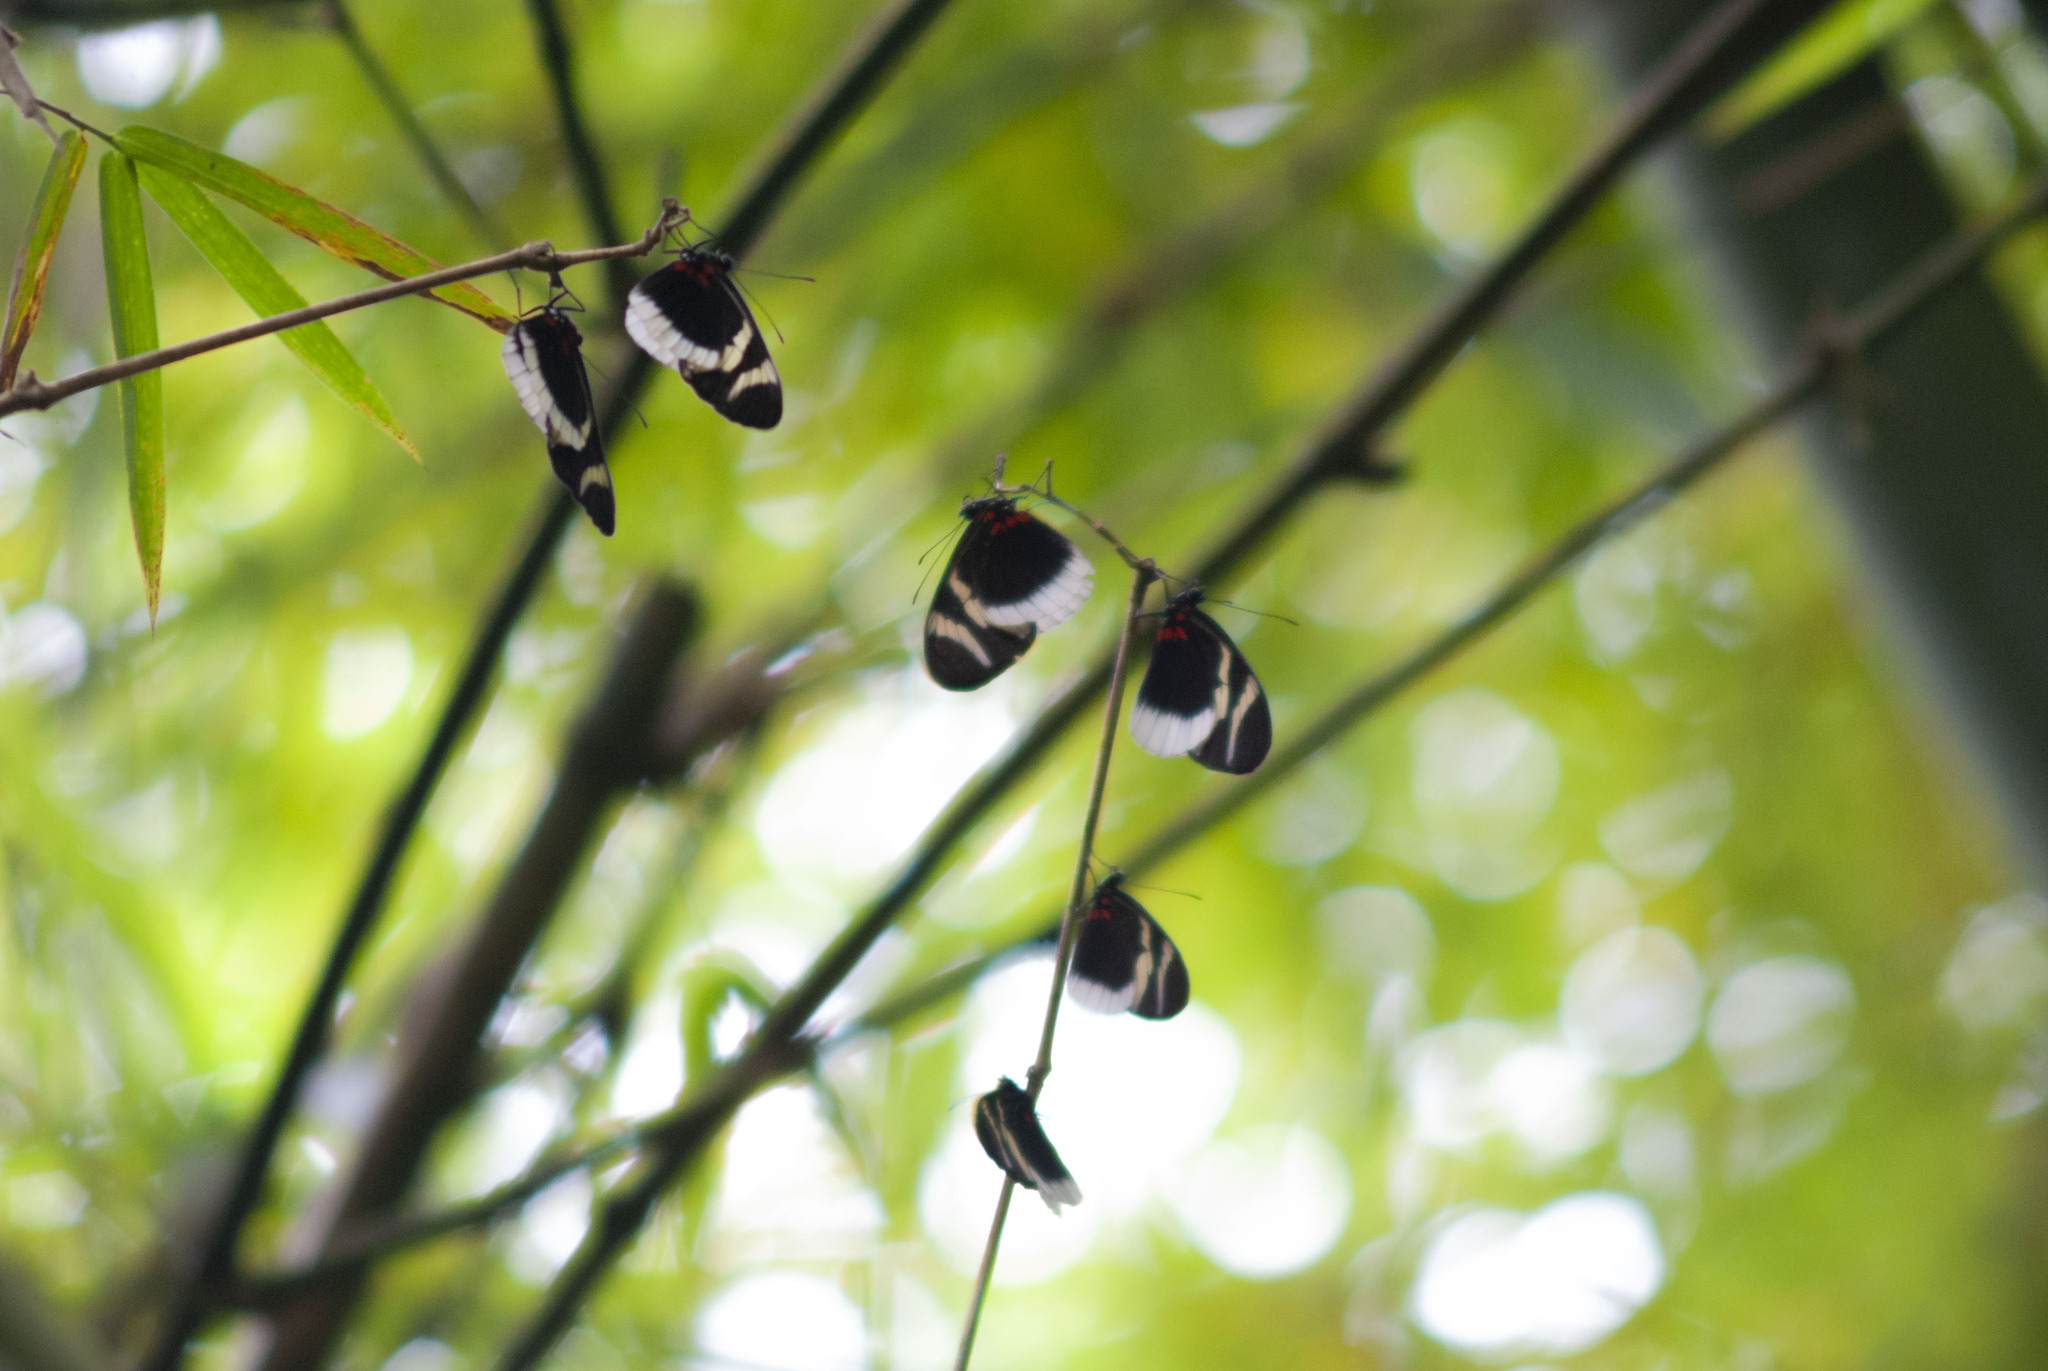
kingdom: Animalia
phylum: Arthropoda
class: Insecta
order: Lepidoptera
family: Nymphalidae
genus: Heliconius
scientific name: Heliconius eleuchia
